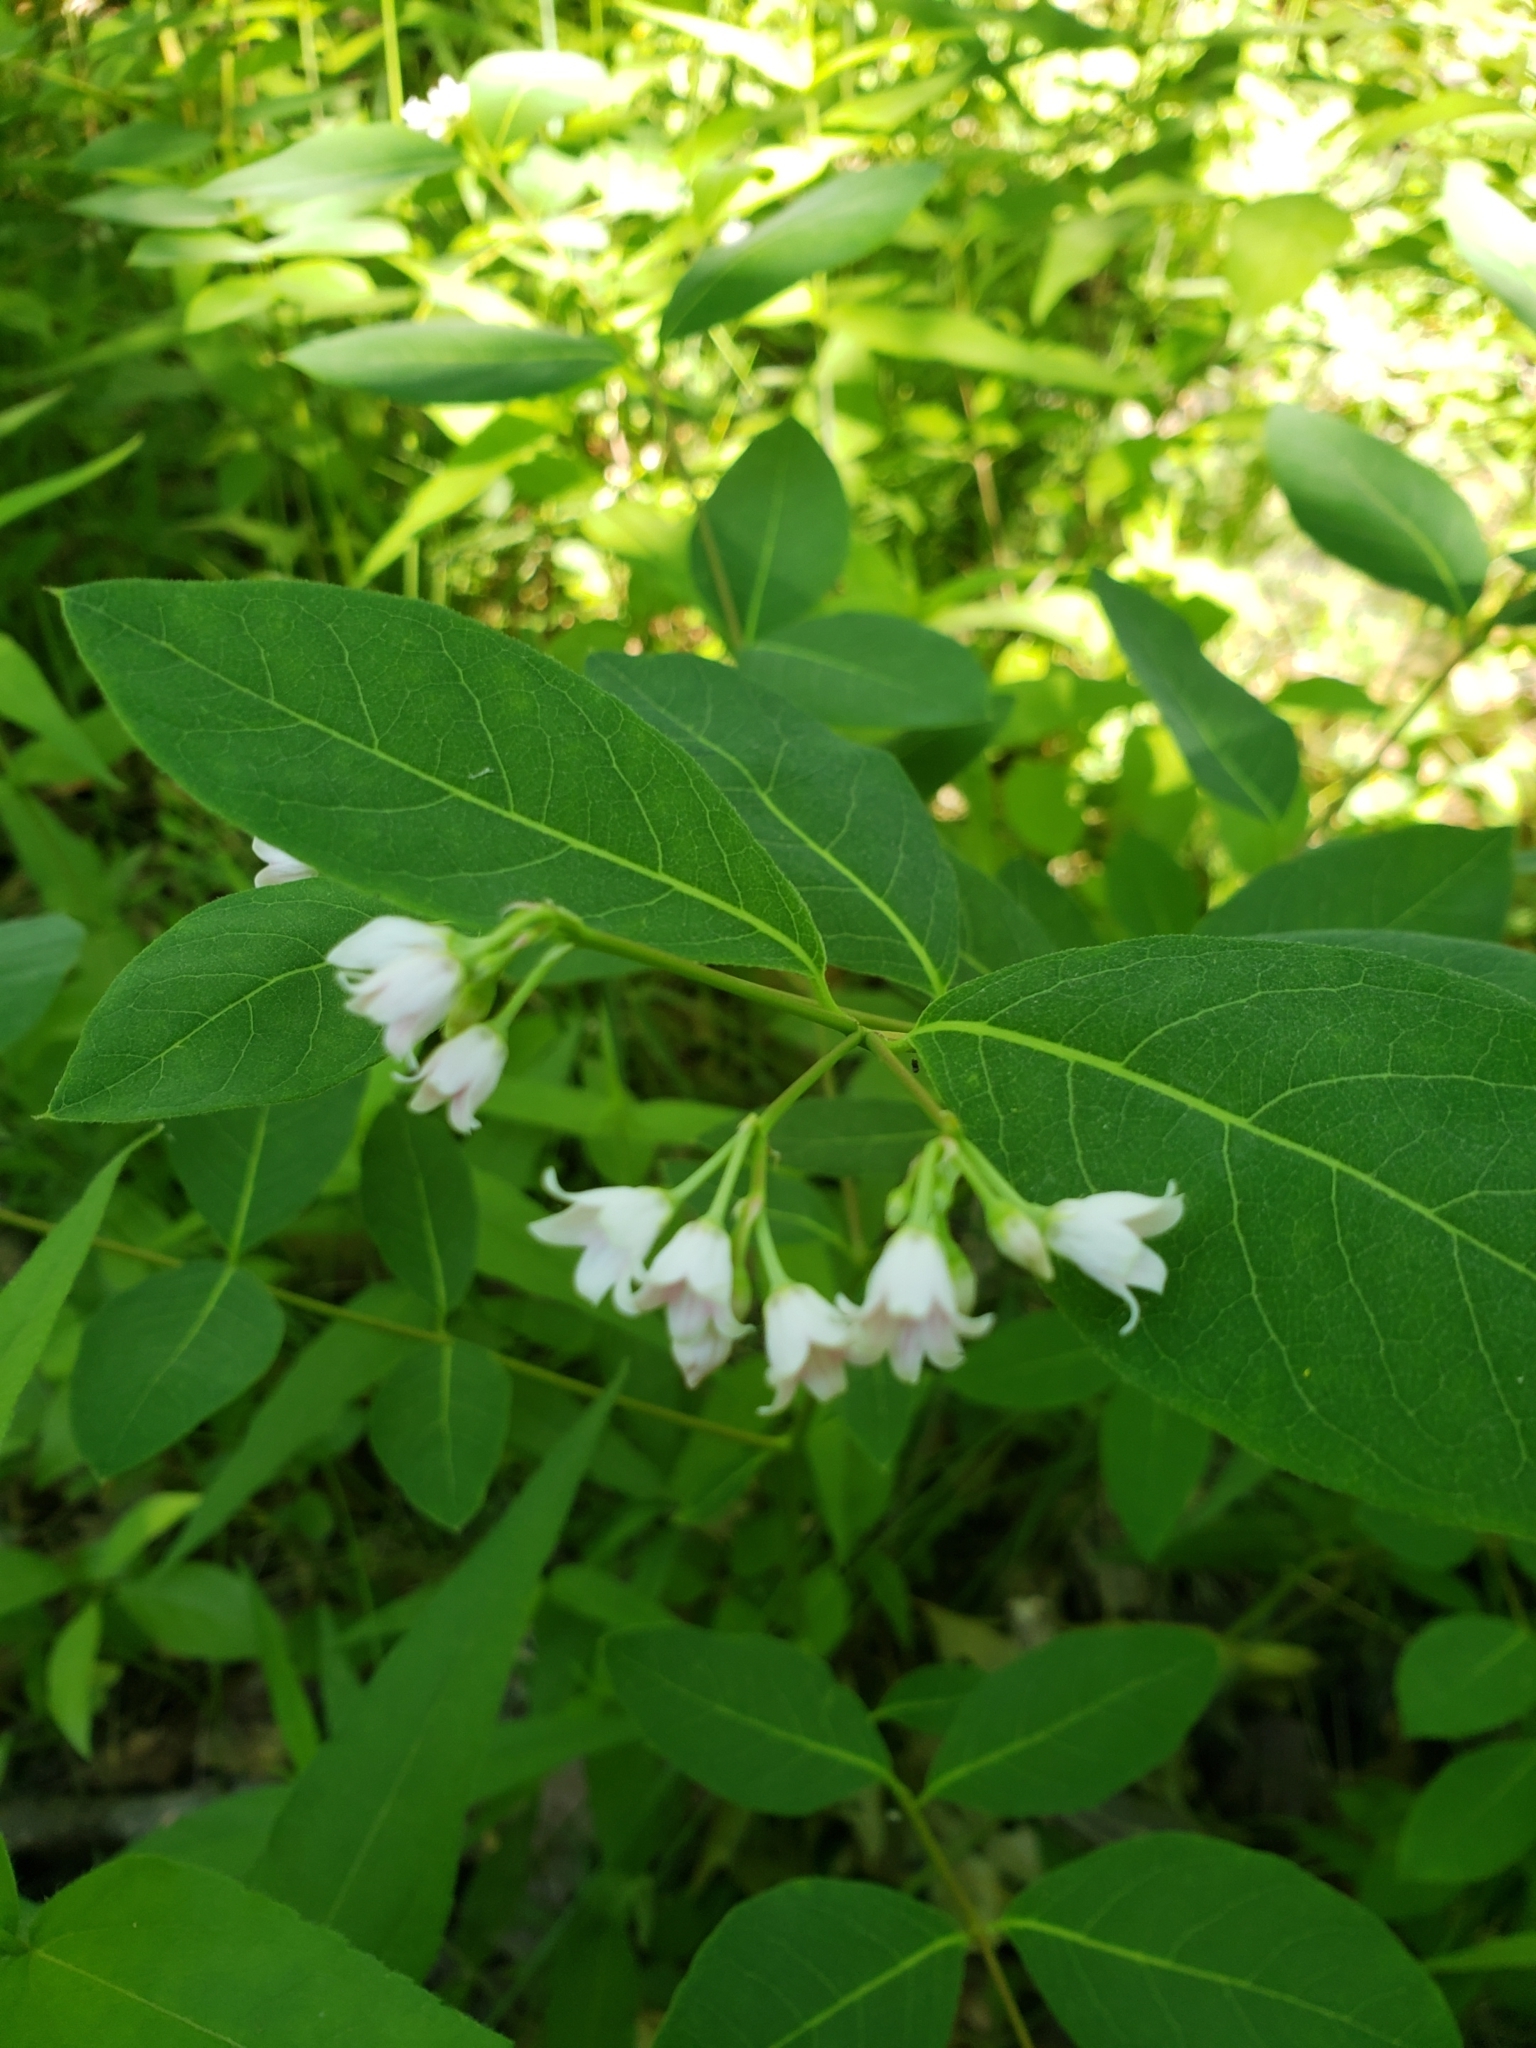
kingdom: Plantae
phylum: Tracheophyta
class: Magnoliopsida
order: Gentianales
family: Apocynaceae
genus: Apocynum
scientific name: Apocynum androsaemifolium
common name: Spreading dogbane
